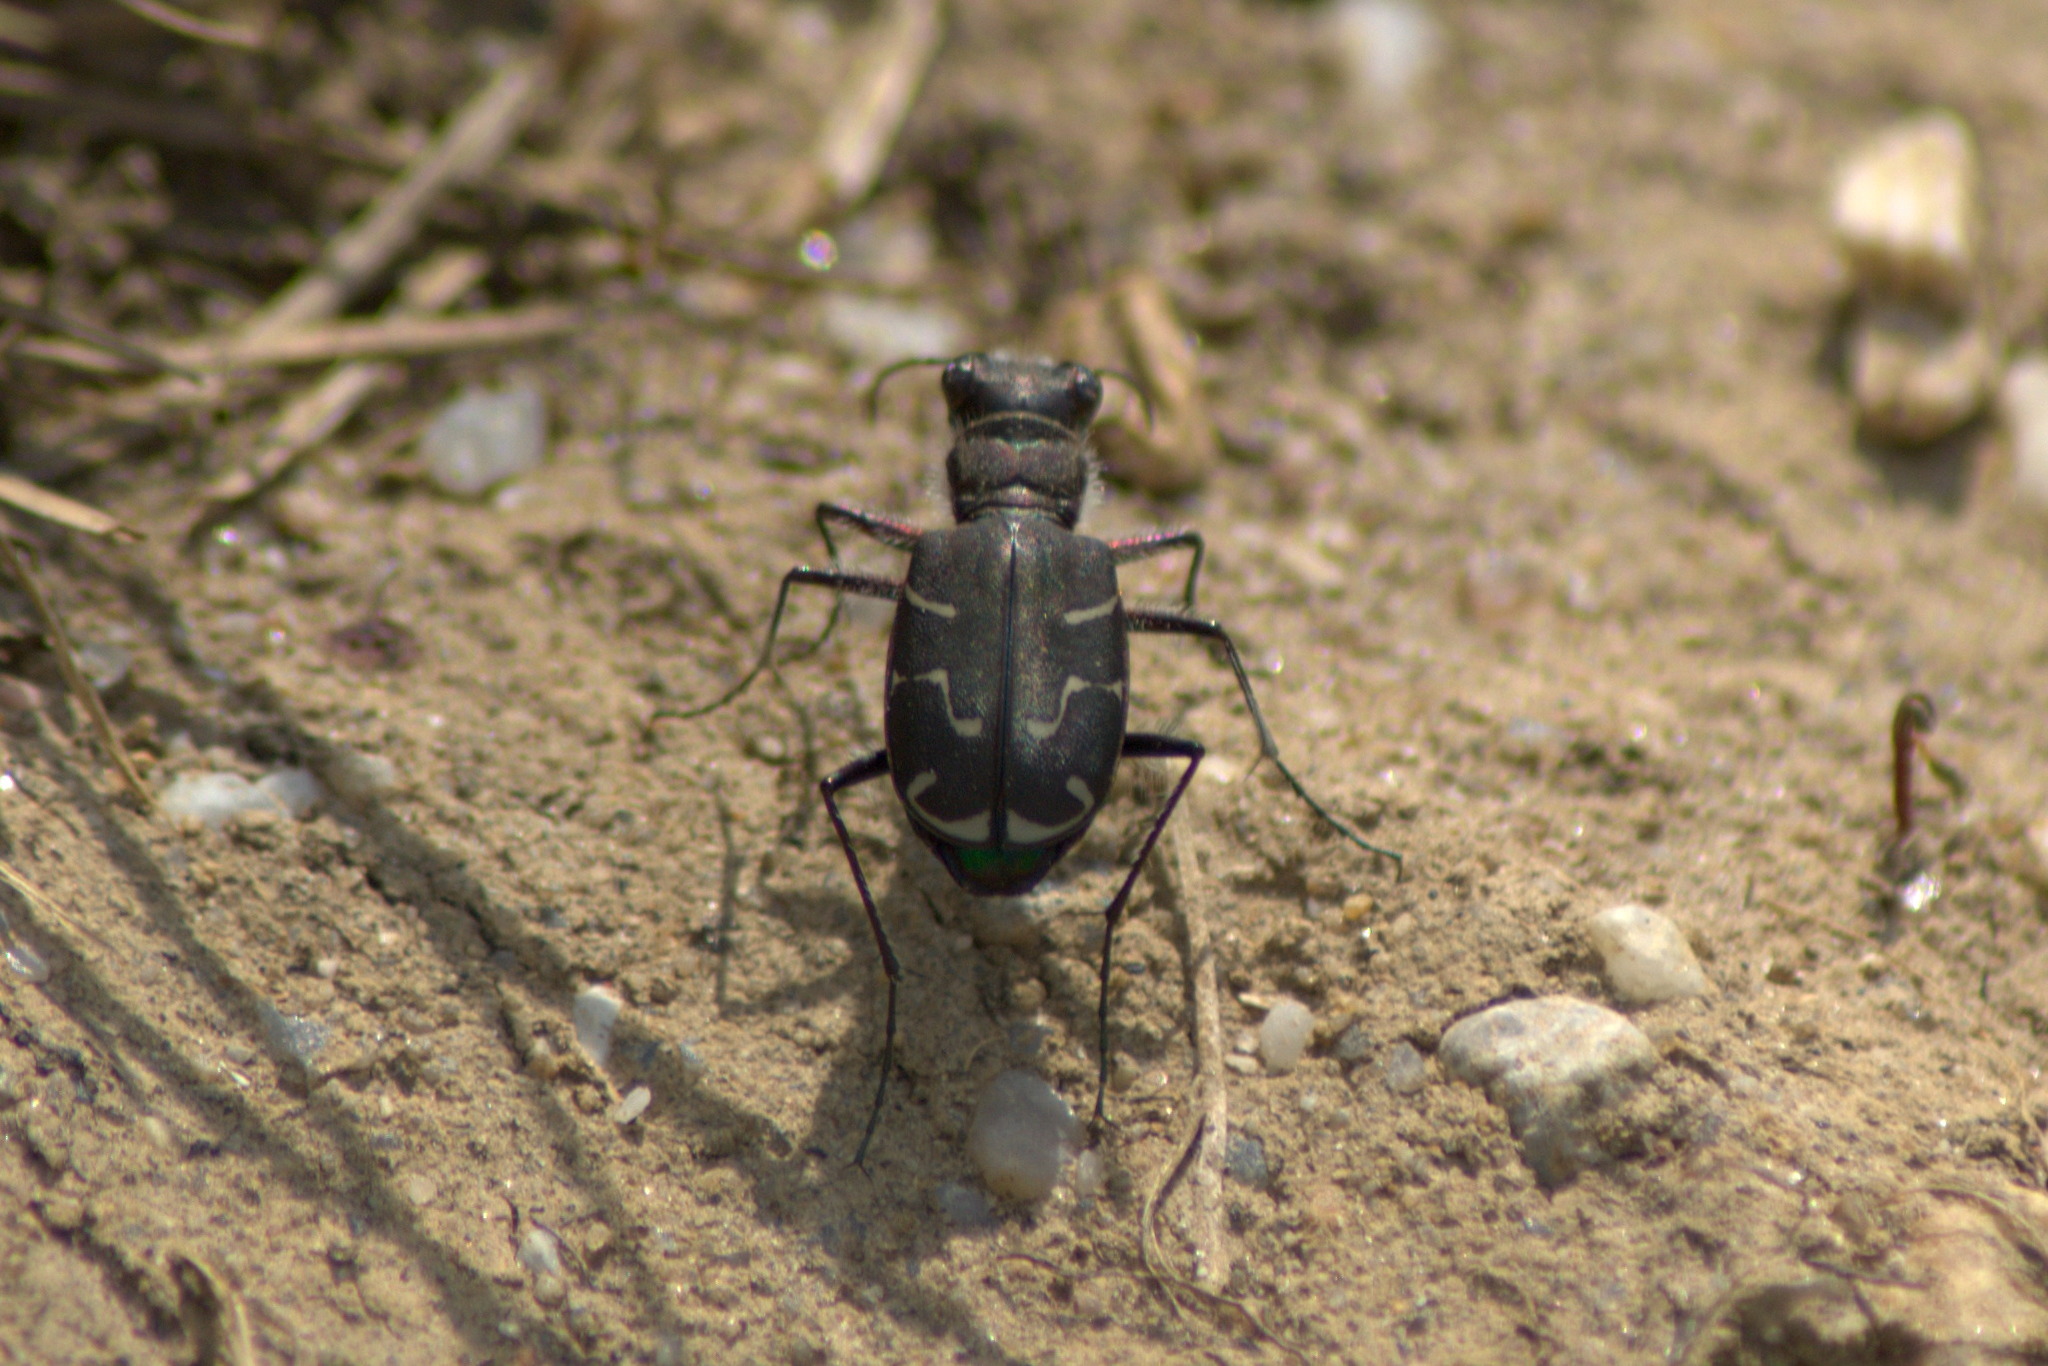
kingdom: Animalia
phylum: Arthropoda
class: Insecta
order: Coleoptera
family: Carabidae
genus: Cicindela
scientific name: Cicindela tranquebarica
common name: Oblique-lined tiger beetle
